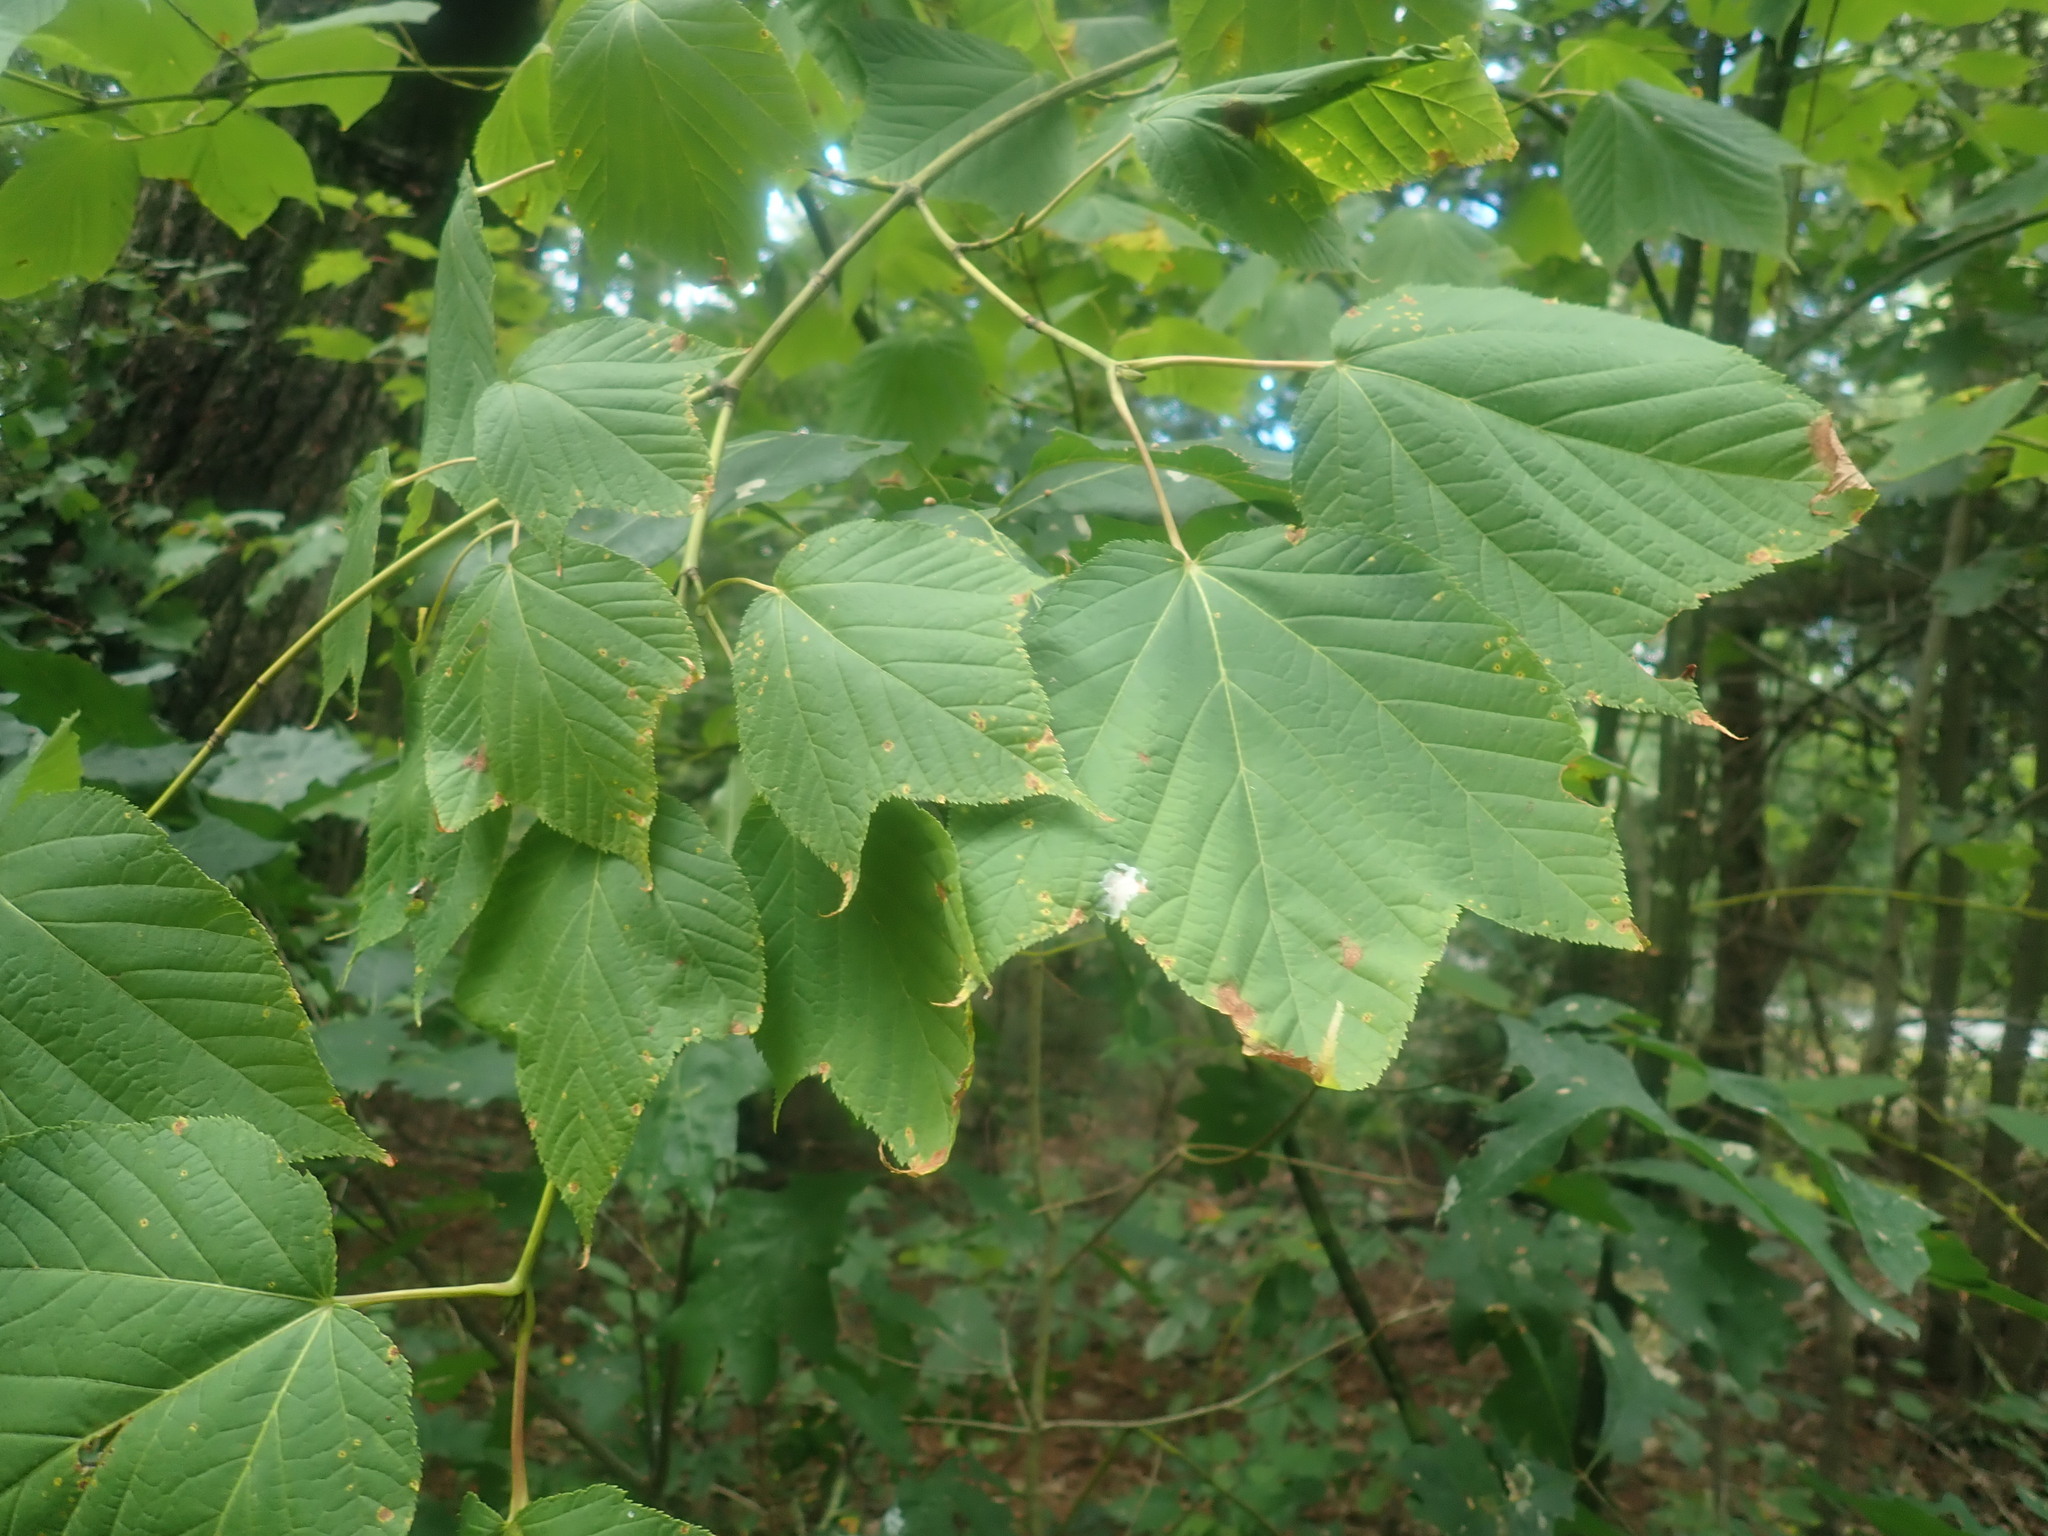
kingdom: Plantae
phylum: Tracheophyta
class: Magnoliopsida
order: Sapindales
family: Sapindaceae
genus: Acer
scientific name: Acer pensylvanicum
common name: Moosewood
